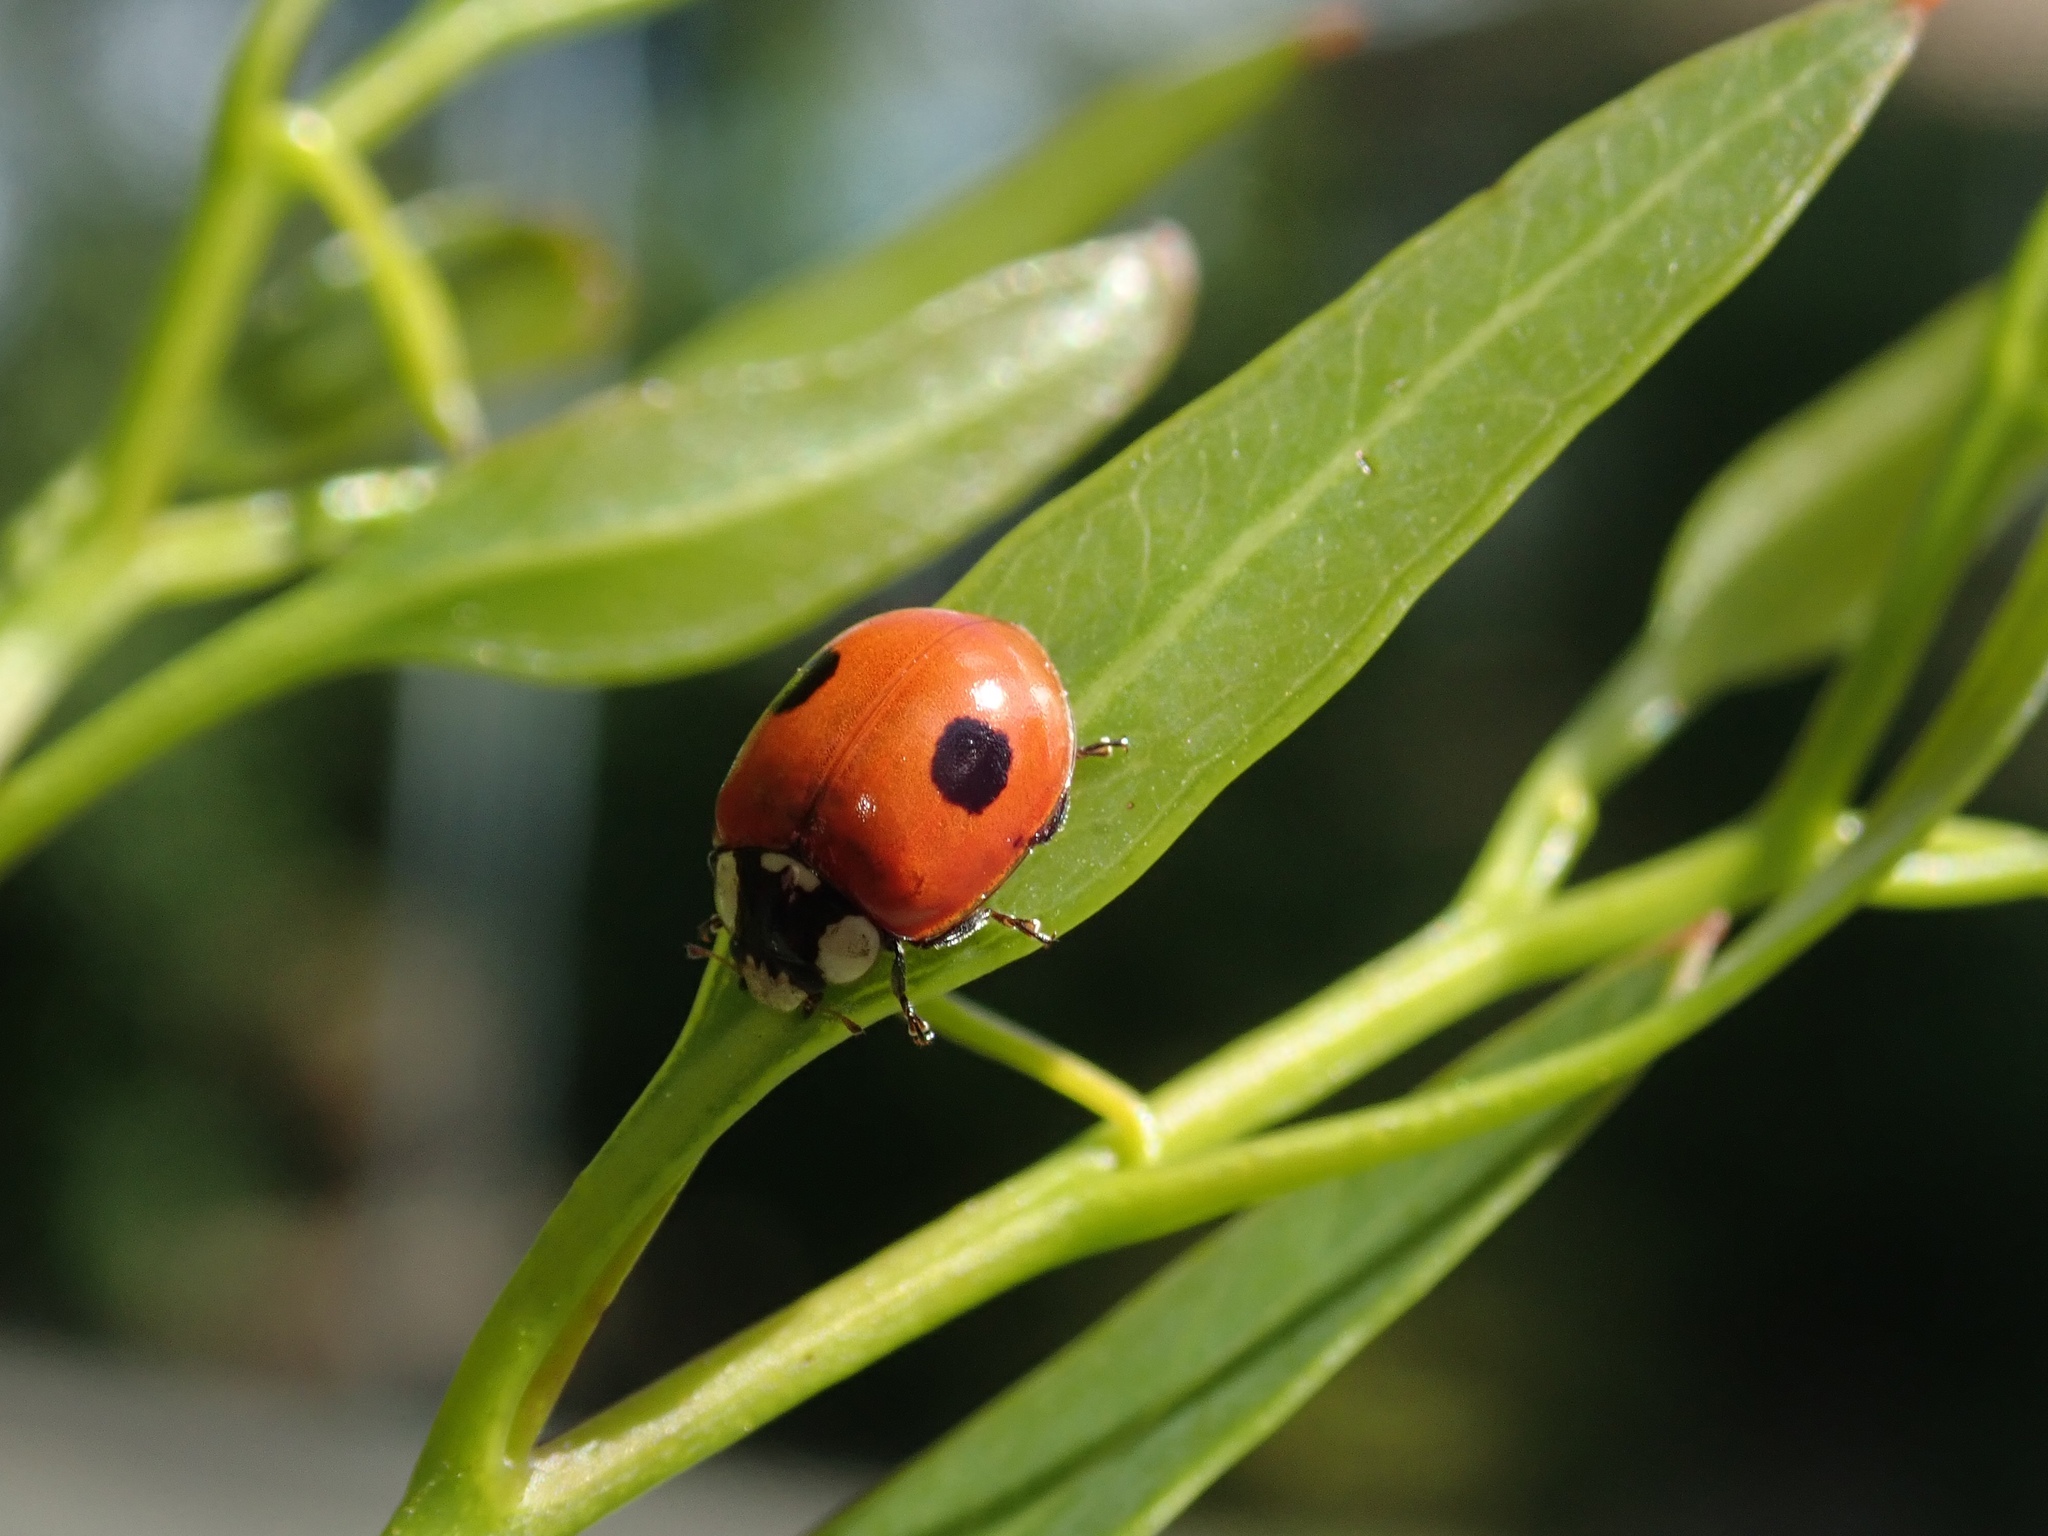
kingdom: Animalia
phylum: Arthropoda
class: Insecta
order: Coleoptera
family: Coccinellidae
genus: Adalia
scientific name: Adalia bipunctata
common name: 2-spot ladybird
